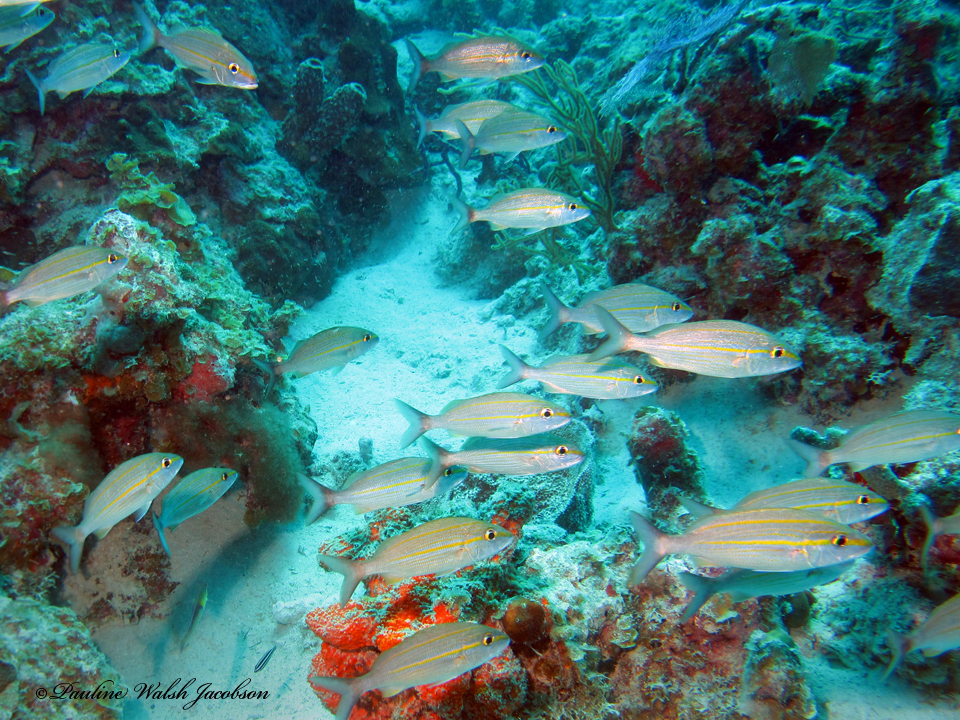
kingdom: Animalia
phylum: Chordata
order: Perciformes
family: Haemulidae
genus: Haemulon
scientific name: Haemulon aurolineatum
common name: Tomtate
